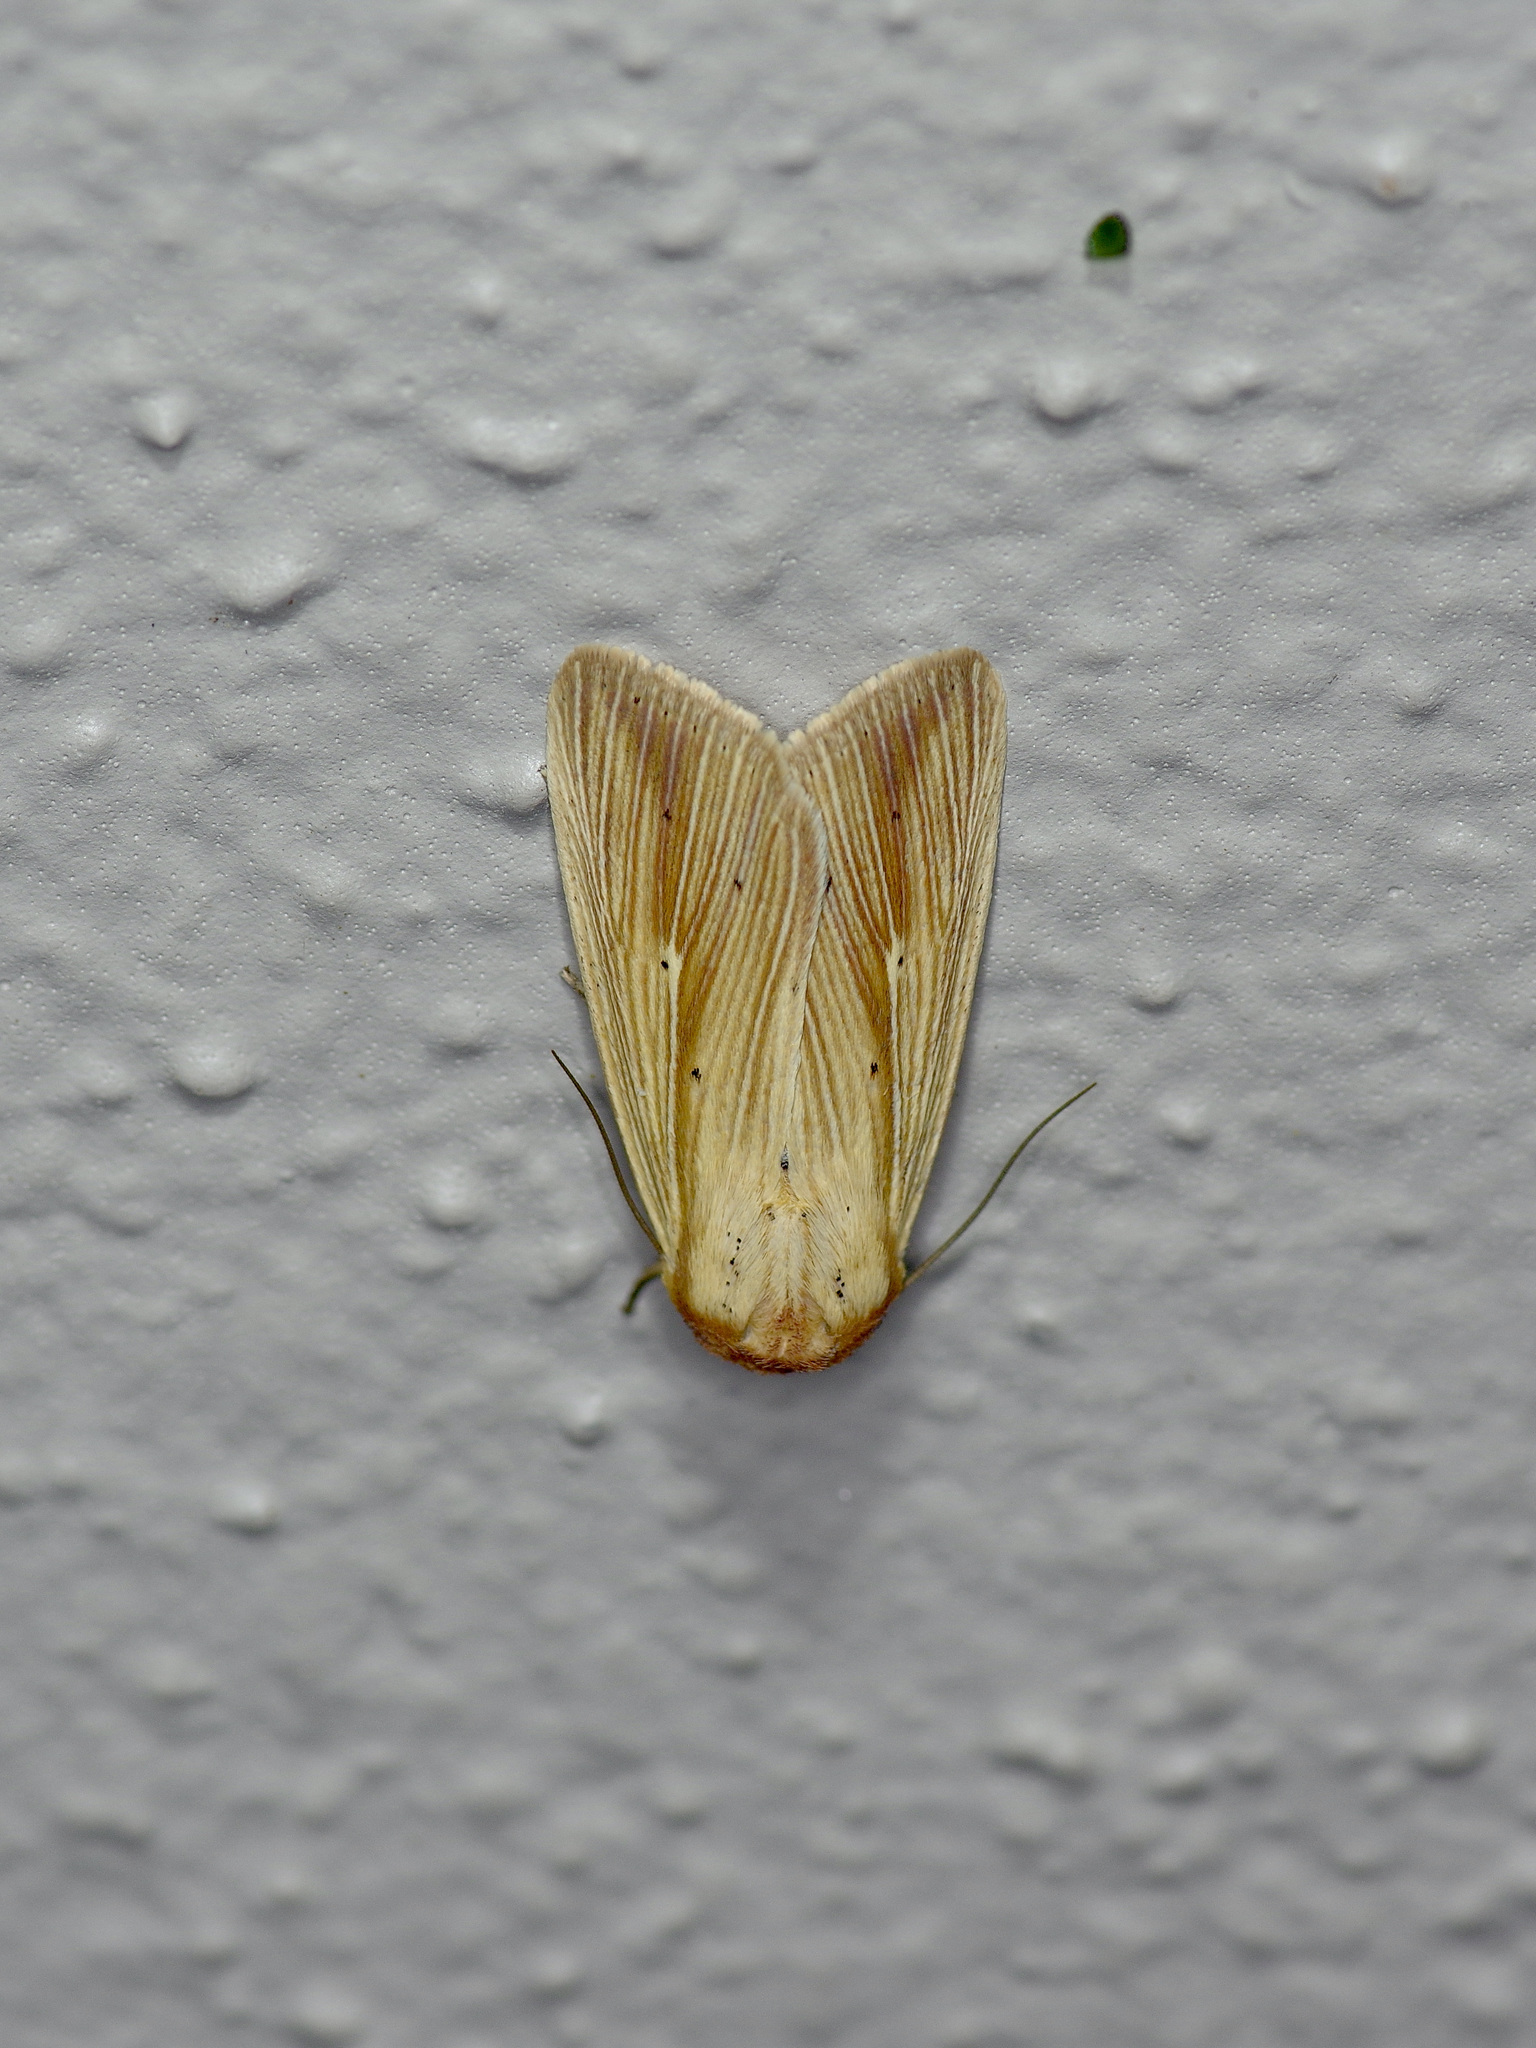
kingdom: Animalia
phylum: Arthropoda
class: Insecta
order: Lepidoptera
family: Noctuidae
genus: Leucania
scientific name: Leucania adjuta
